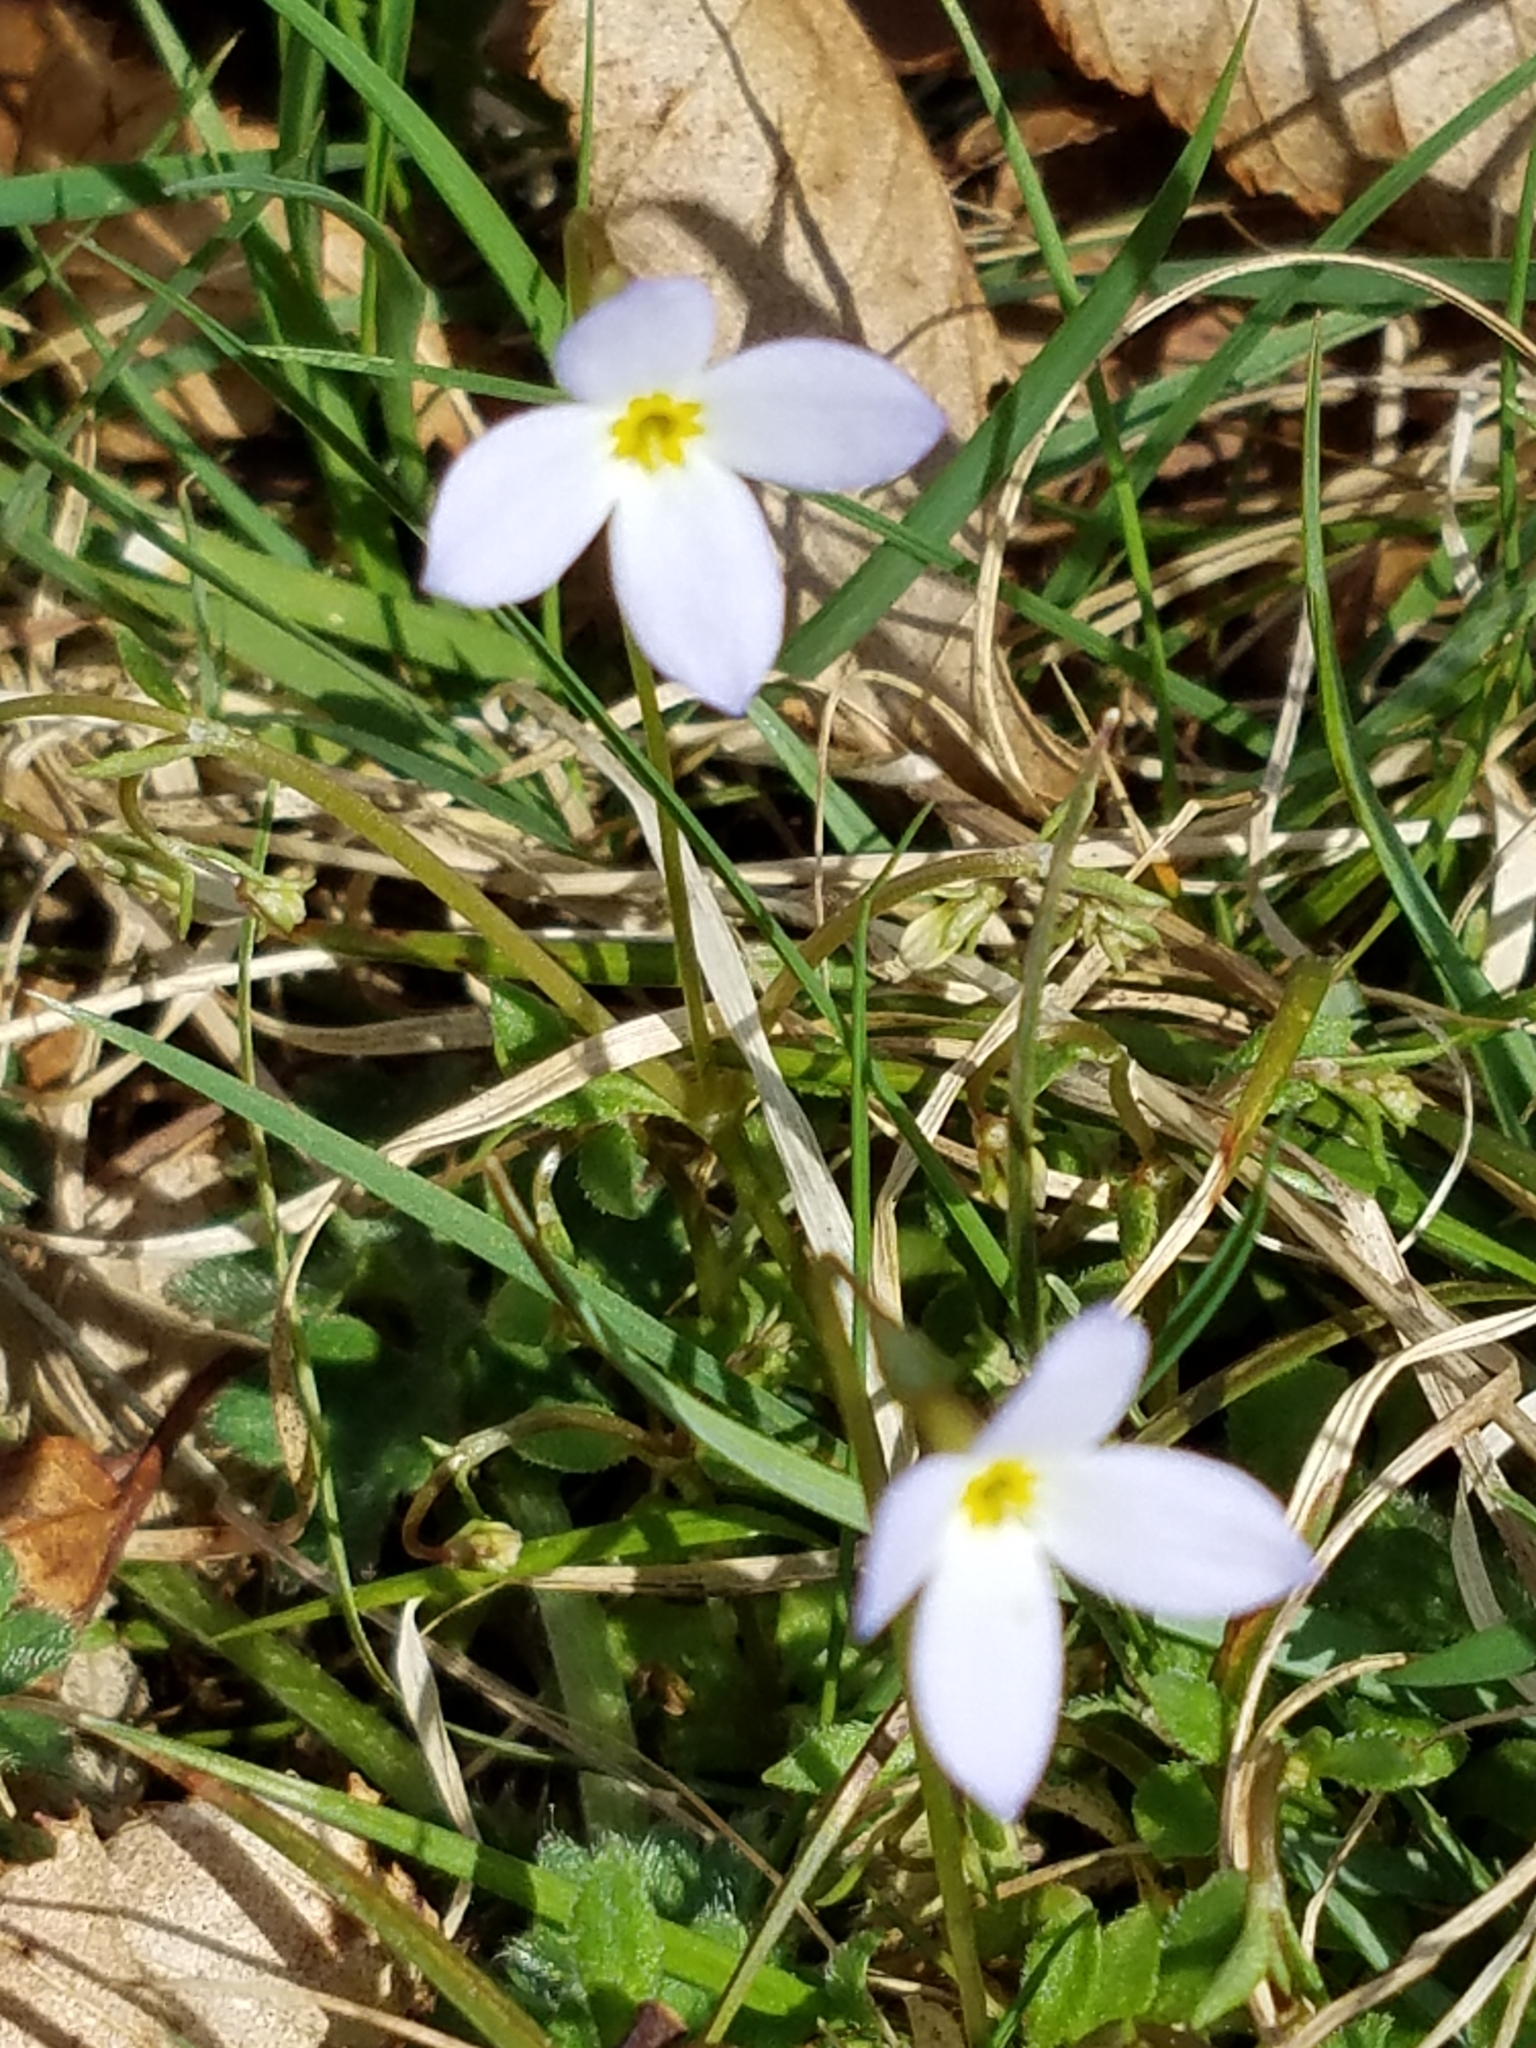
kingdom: Plantae
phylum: Tracheophyta
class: Magnoliopsida
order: Gentianales
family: Rubiaceae
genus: Houstonia
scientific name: Houstonia caerulea
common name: Bluets
